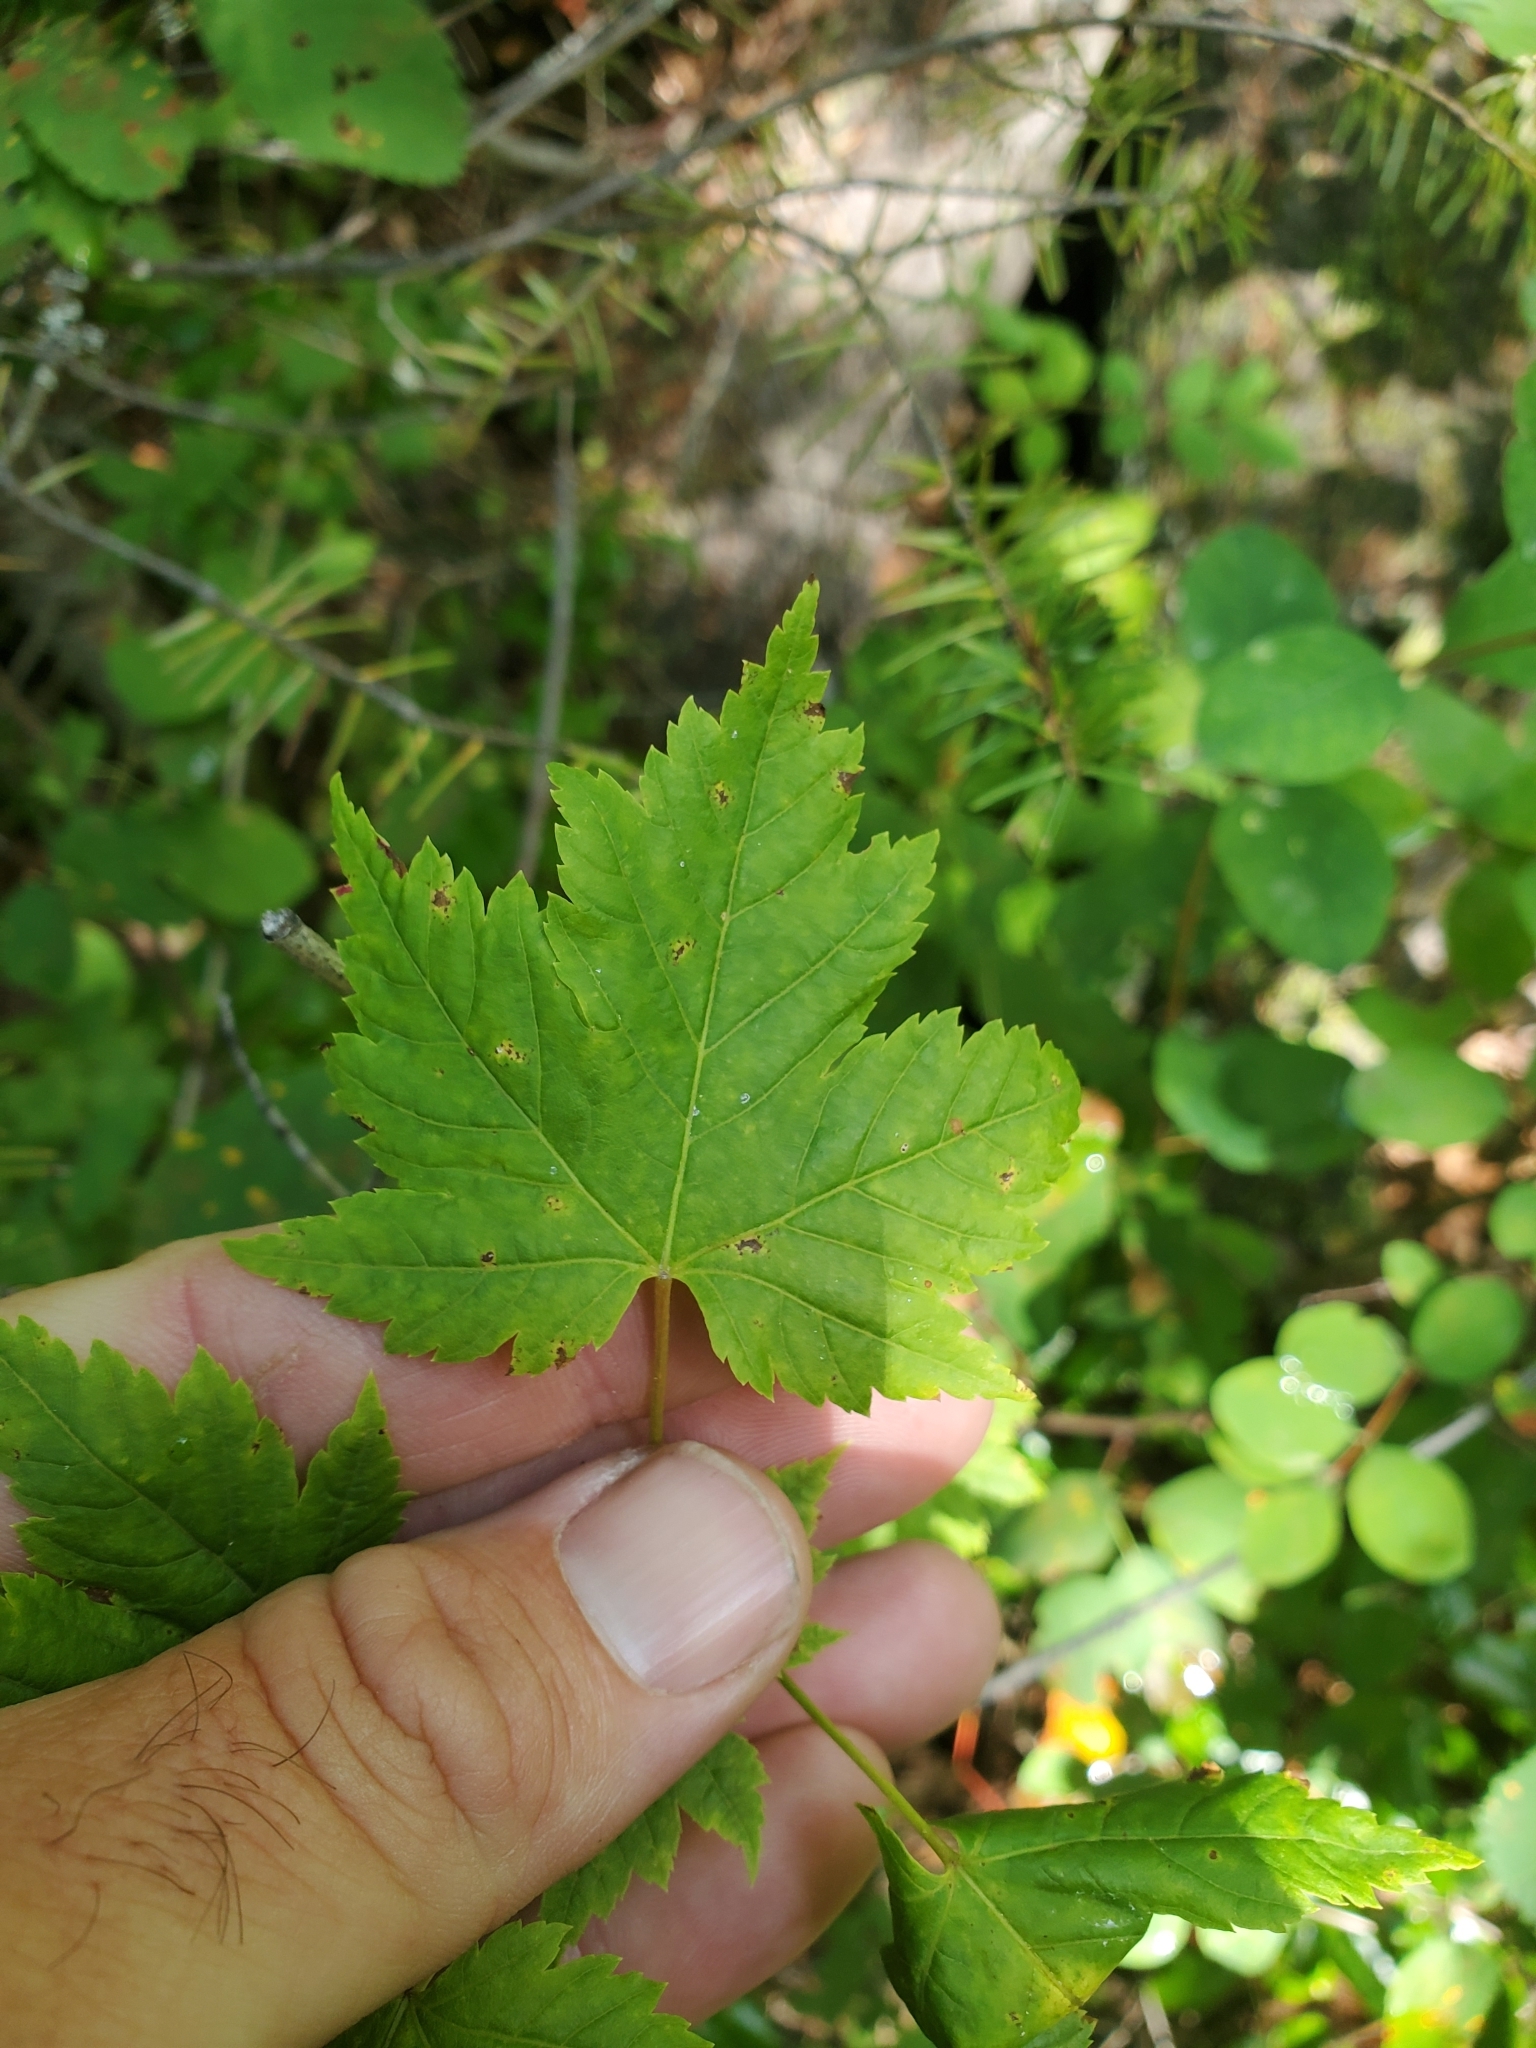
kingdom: Plantae
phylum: Tracheophyta
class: Magnoliopsida
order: Sapindales
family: Sapindaceae
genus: Acer
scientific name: Acer glabrum
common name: Rocky mountain maple
